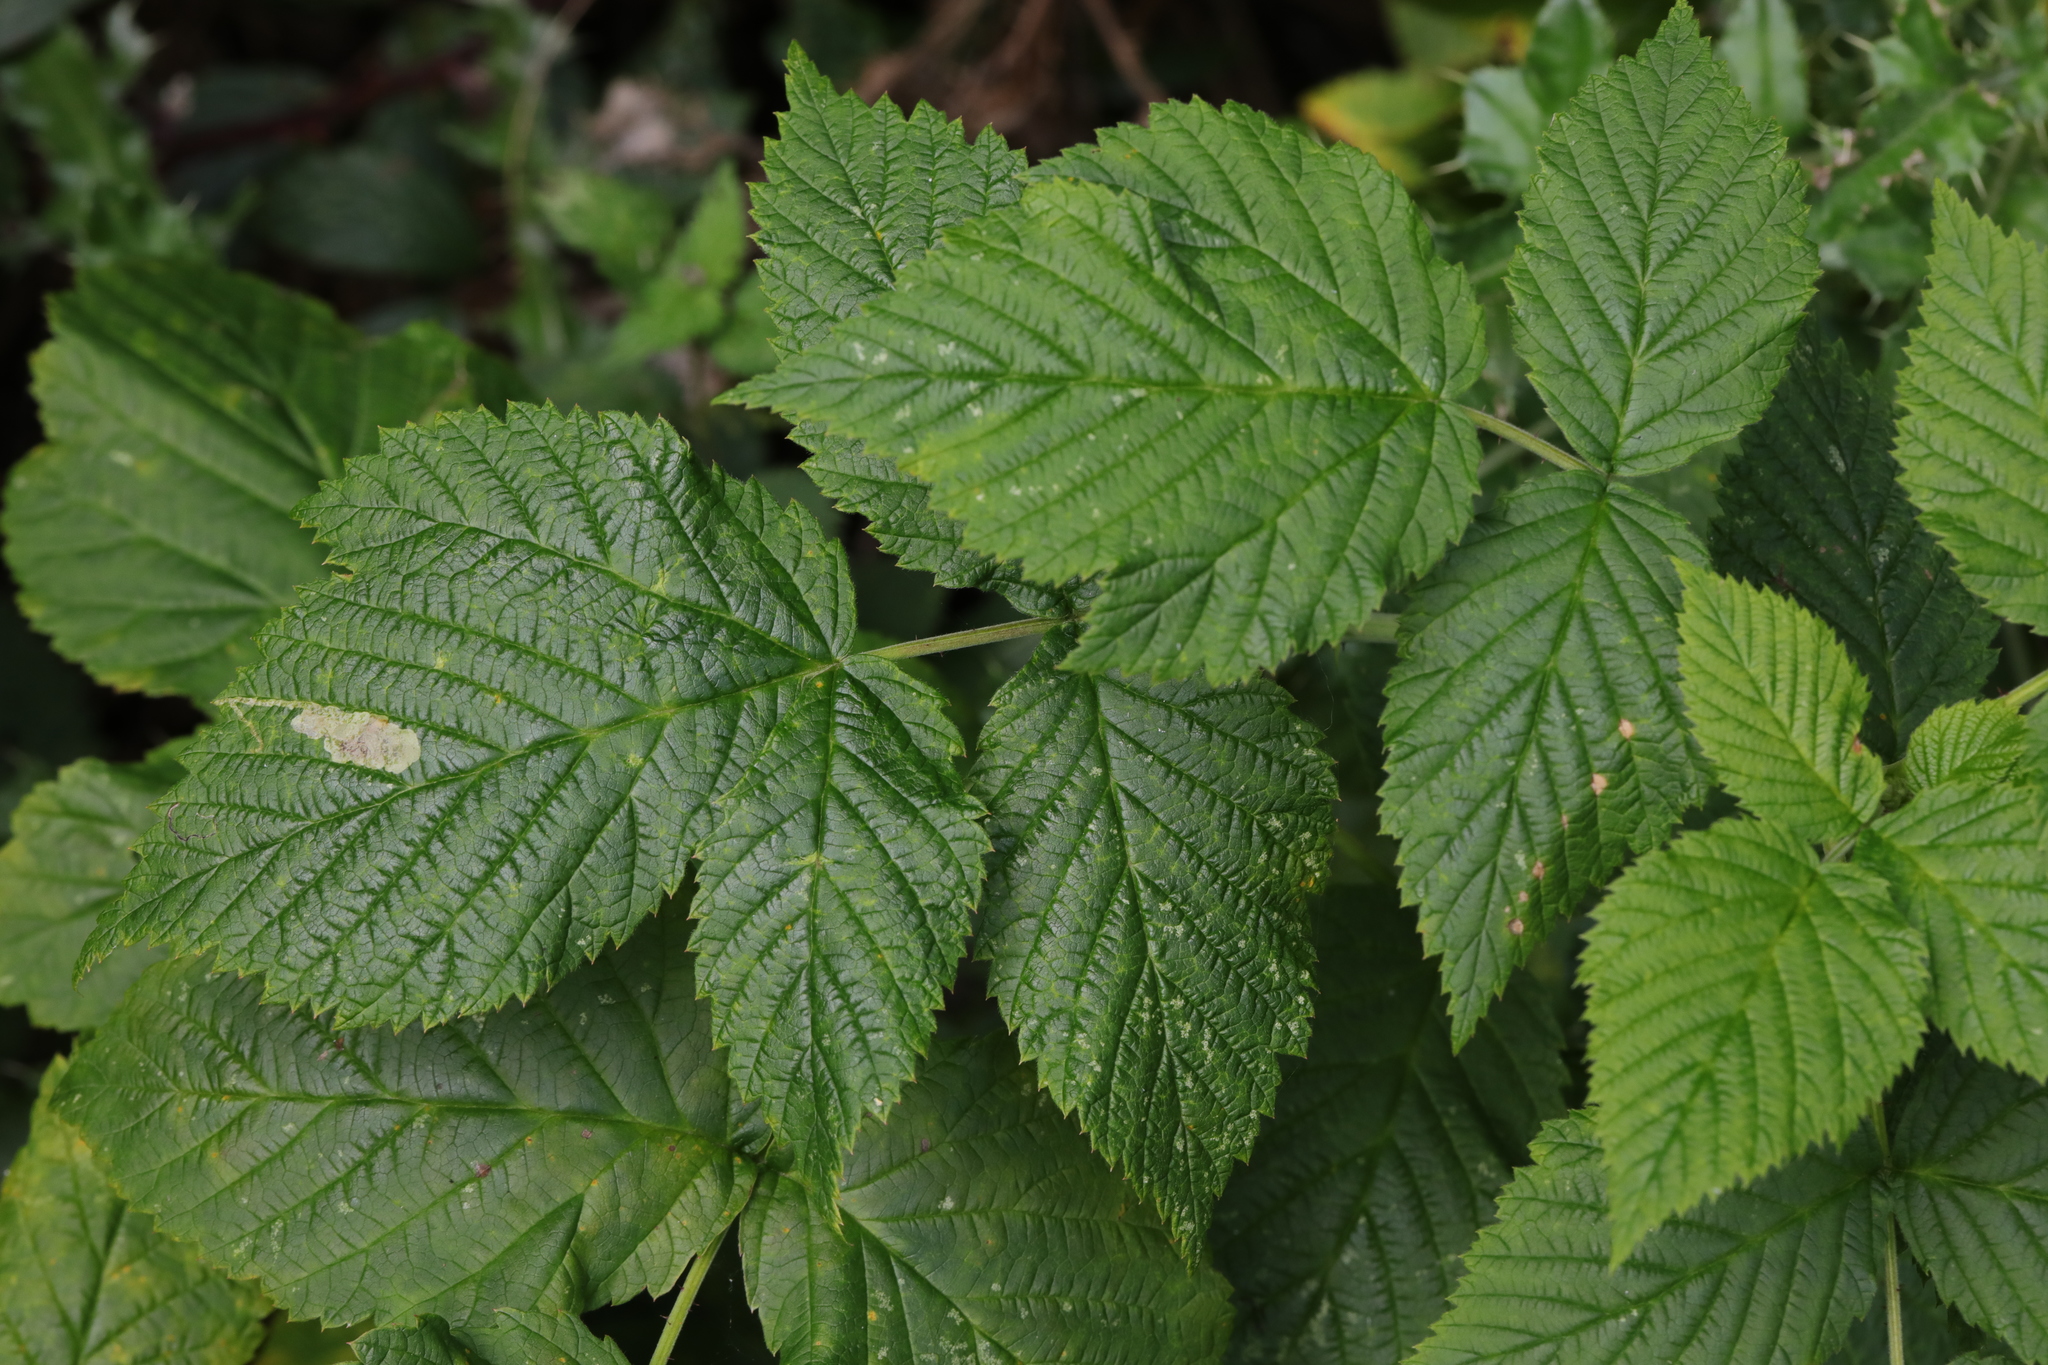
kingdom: Plantae
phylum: Tracheophyta
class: Magnoliopsida
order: Rosales
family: Rosaceae
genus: Rubus
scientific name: Rubus idaeus
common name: Raspberry
